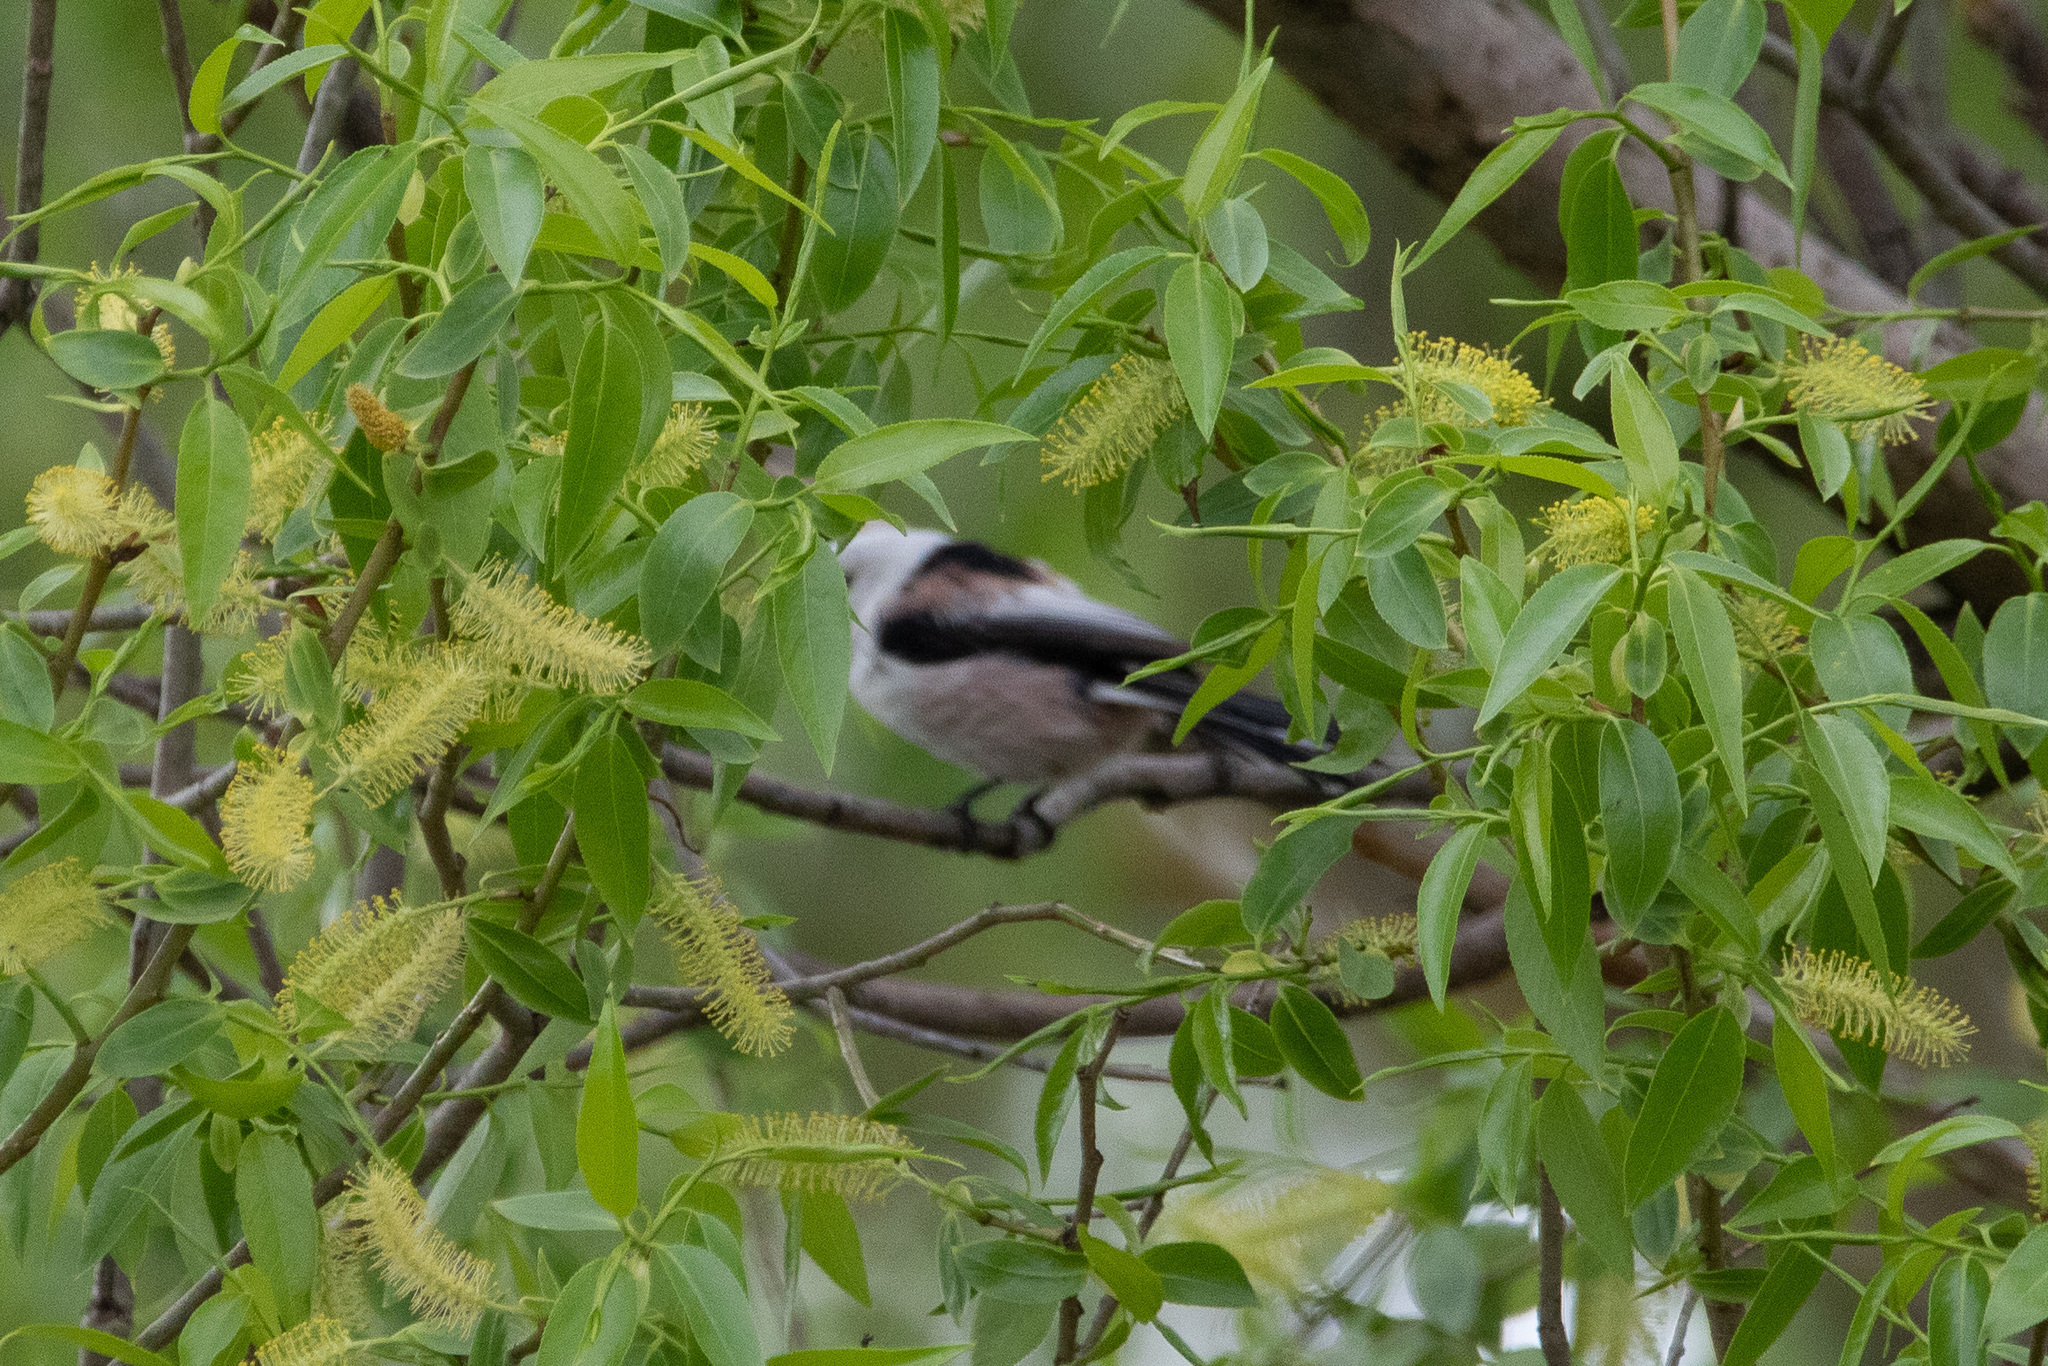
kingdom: Animalia
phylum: Chordata
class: Aves
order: Passeriformes
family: Aegithalidae
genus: Aegithalos
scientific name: Aegithalos caudatus
